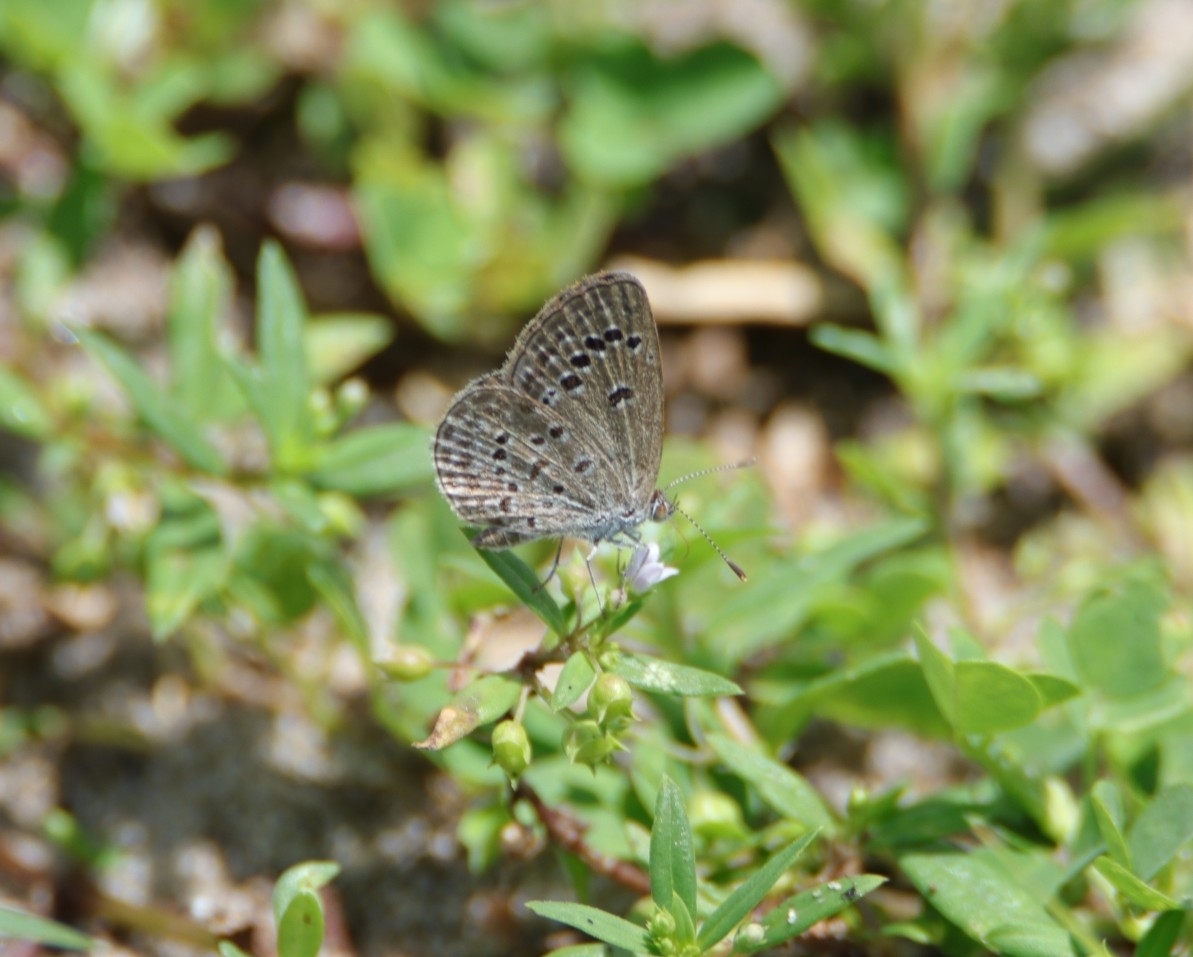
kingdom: Animalia
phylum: Arthropoda
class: Insecta
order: Lepidoptera
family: Lycaenidae
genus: Zizina
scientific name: Zizina otis
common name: Lesser grass blue
